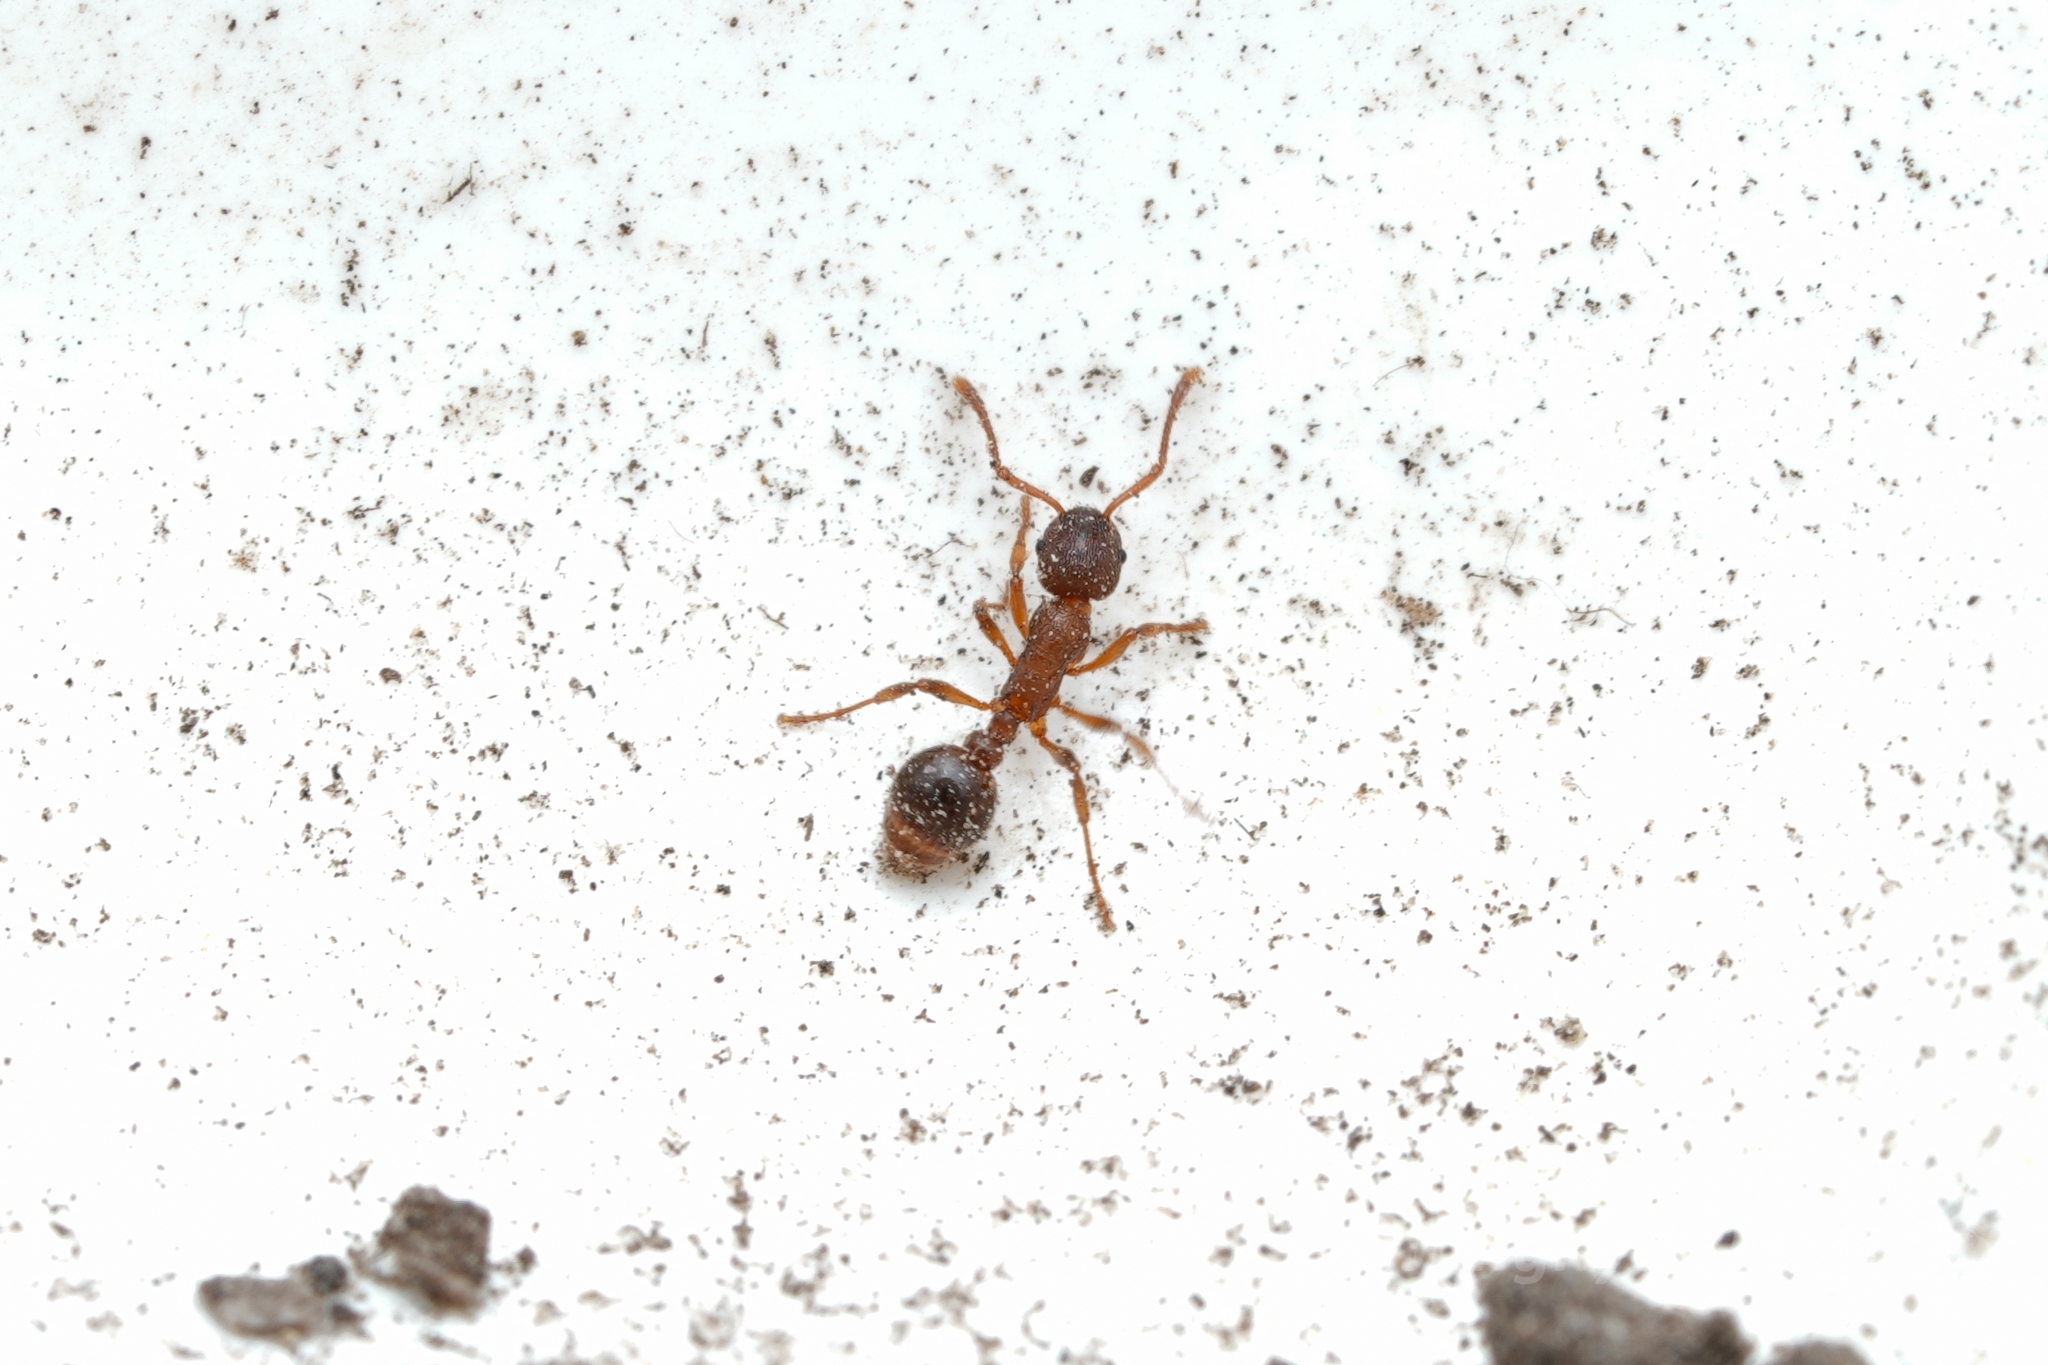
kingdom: Animalia
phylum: Arthropoda
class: Insecta
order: Hymenoptera
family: Formicidae
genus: Myrmica
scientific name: Myrmica wheeleri
